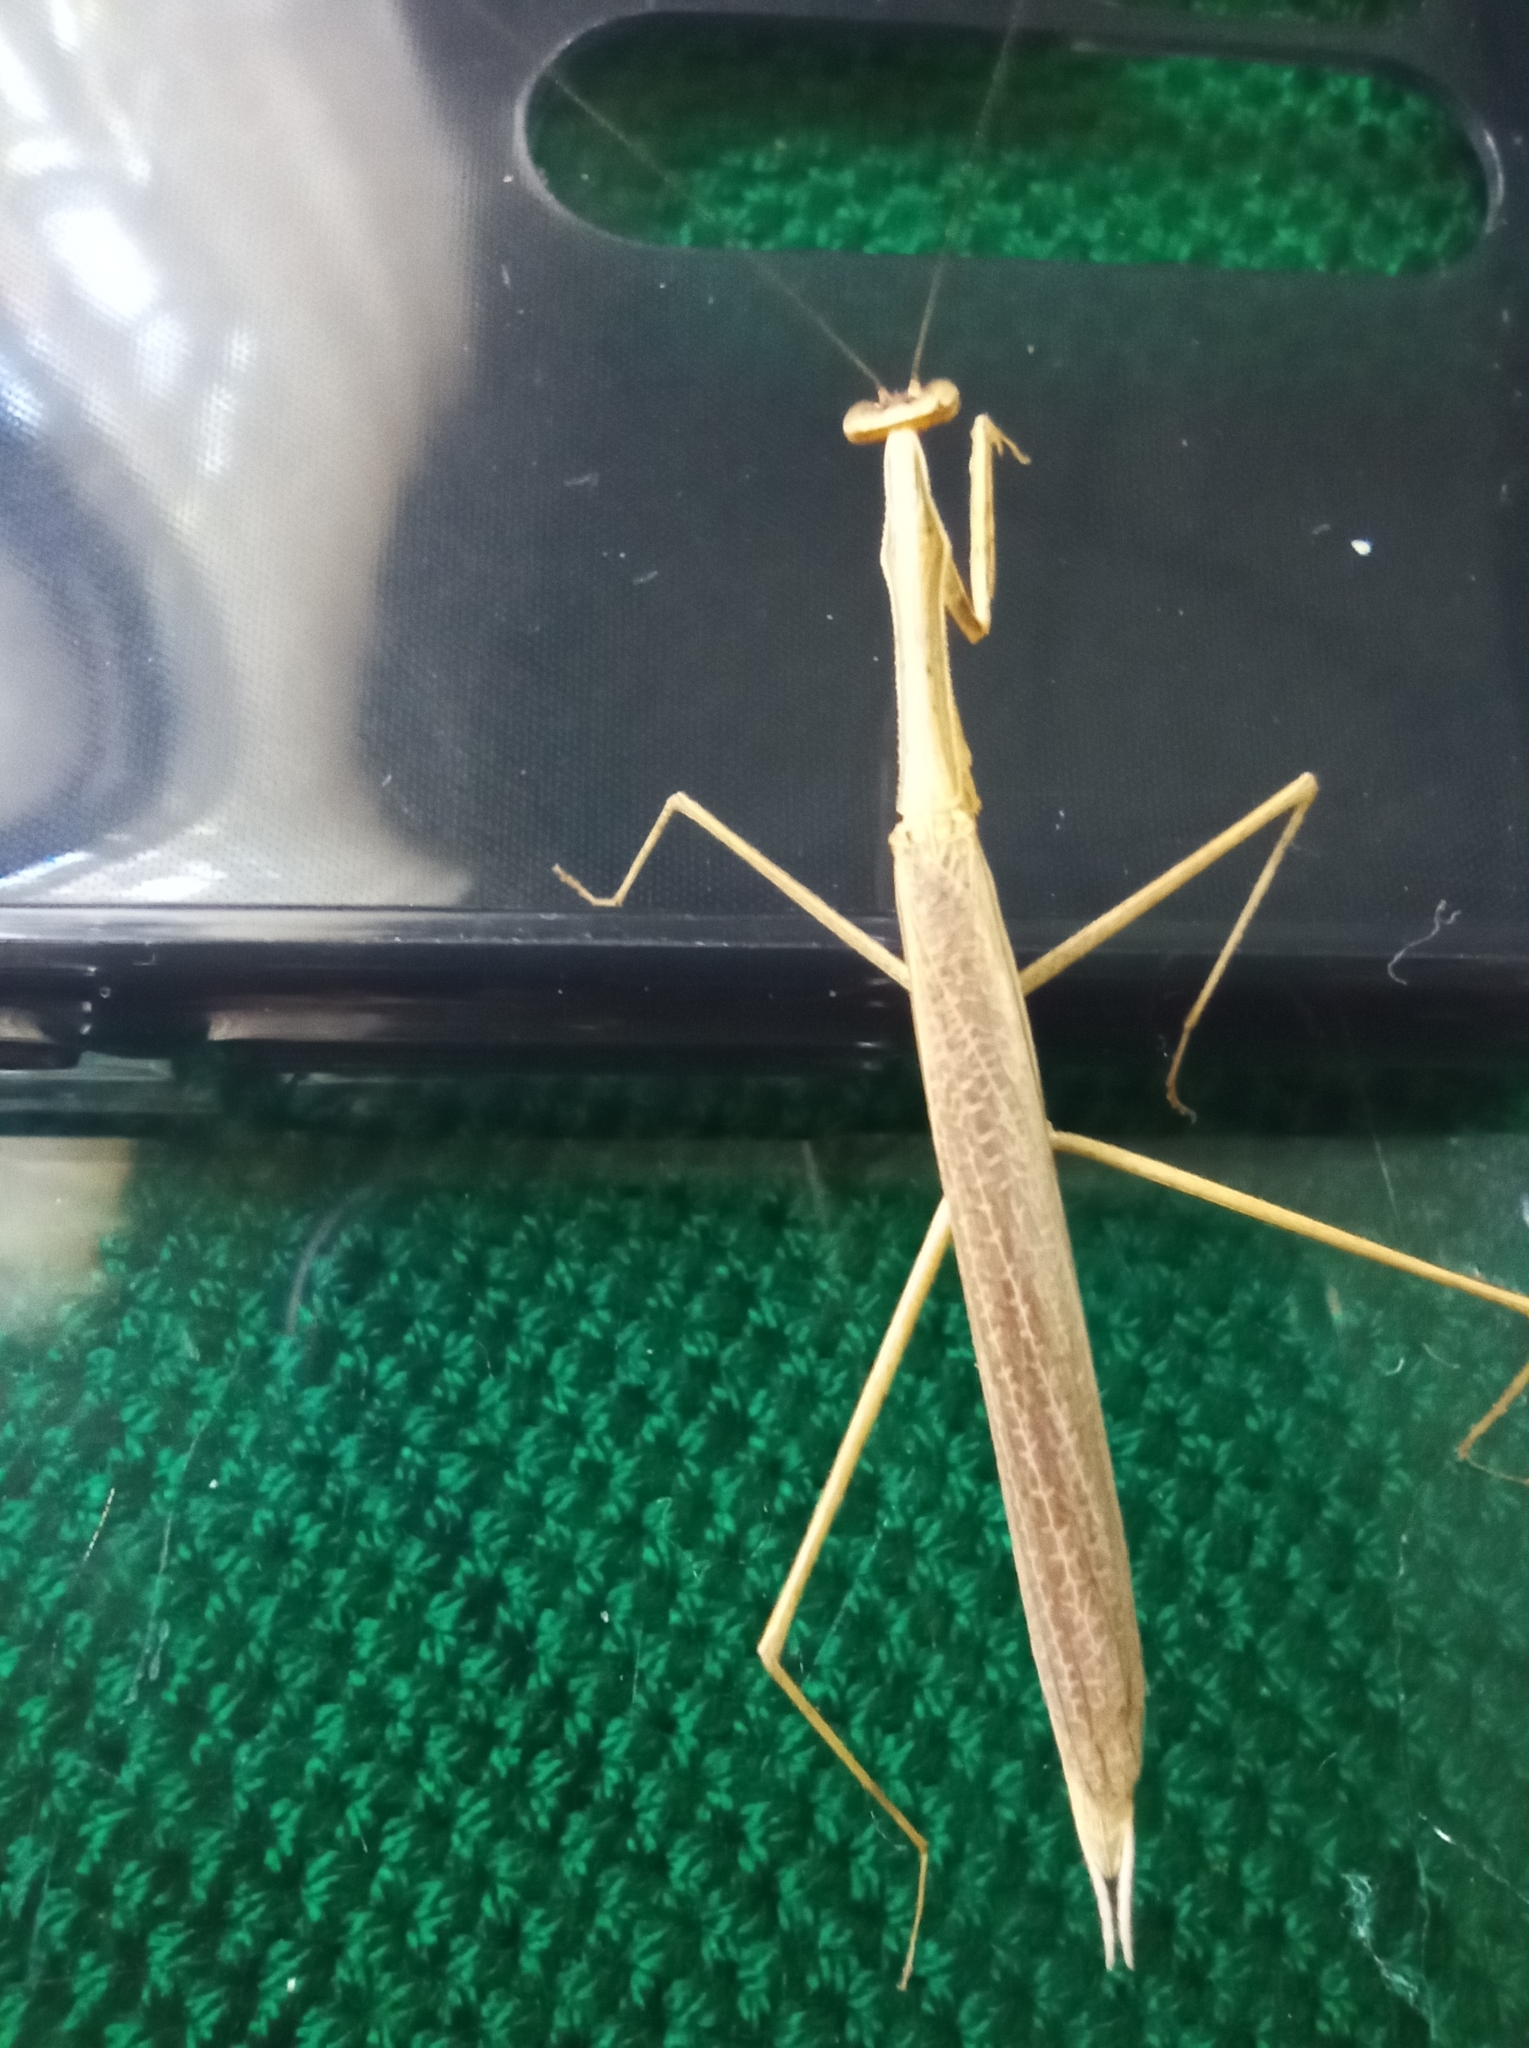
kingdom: Animalia
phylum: Arthropoda
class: Insecta
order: Mantodea
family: Thespidae
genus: Musonia
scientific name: Musonia surinama
